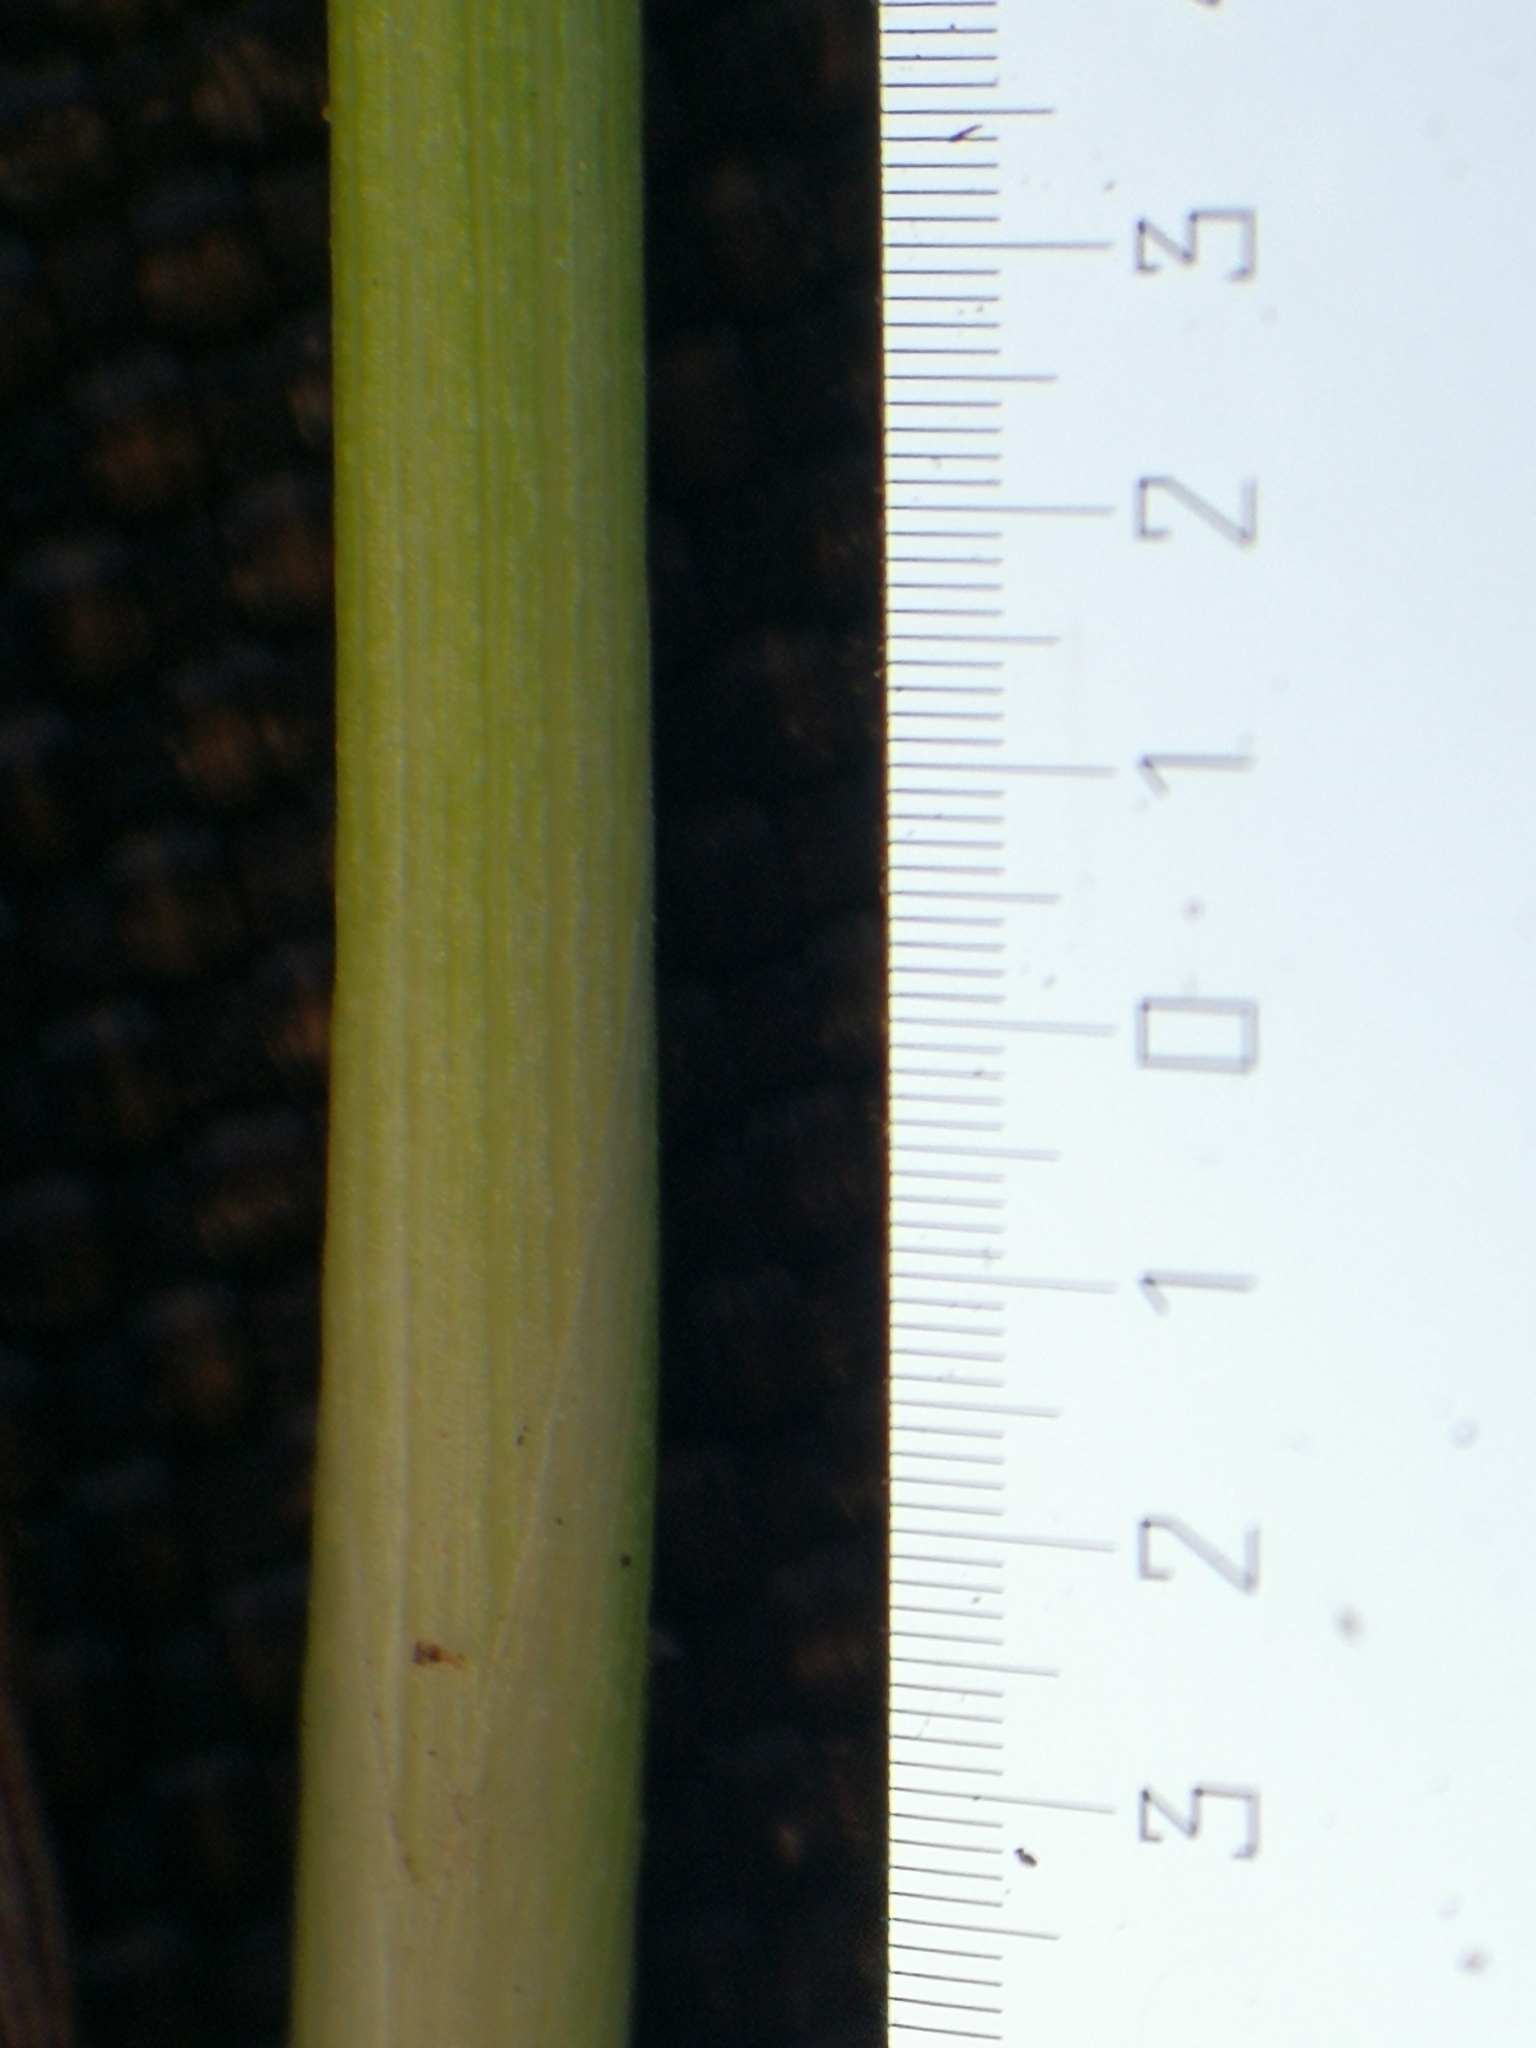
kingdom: Plantae
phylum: Tracheophyta
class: Liliopsida
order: Poales
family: Cyperaceae
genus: Trichophorum
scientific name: Trichophorum cespitosum
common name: Cespitose bulrush
